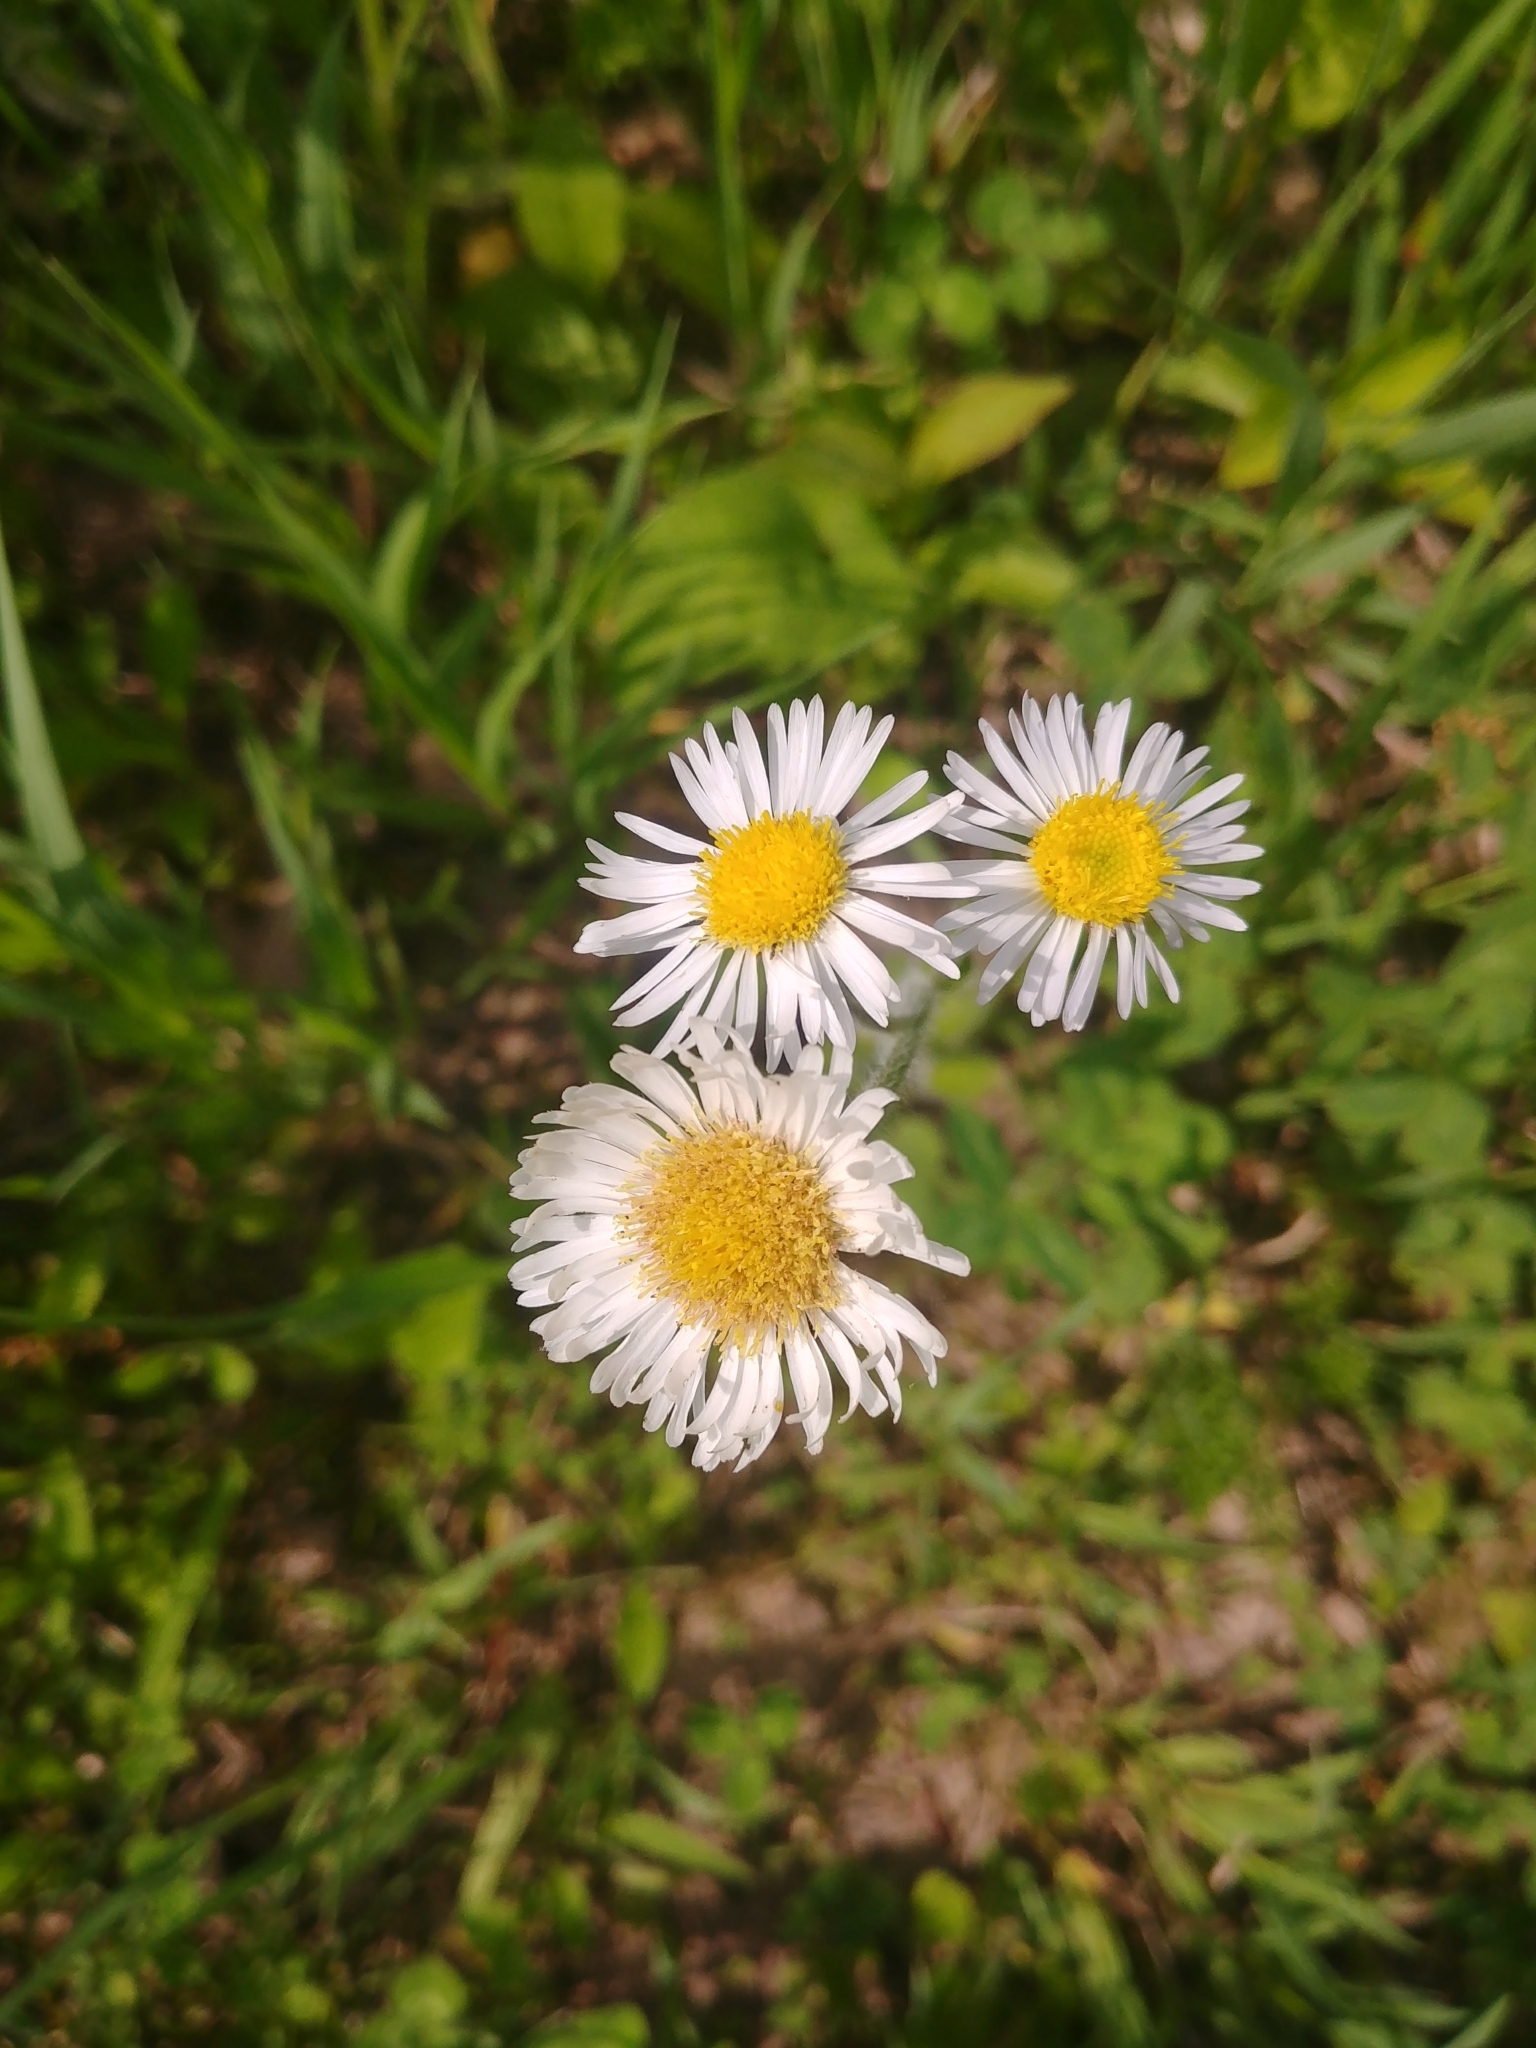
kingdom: Plantae
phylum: Tracheophyta
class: Magnoliopsida
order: Asterales
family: Asteraceae
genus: Erigeron
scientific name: Erigeron pulchellus
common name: Hairy fleabane
